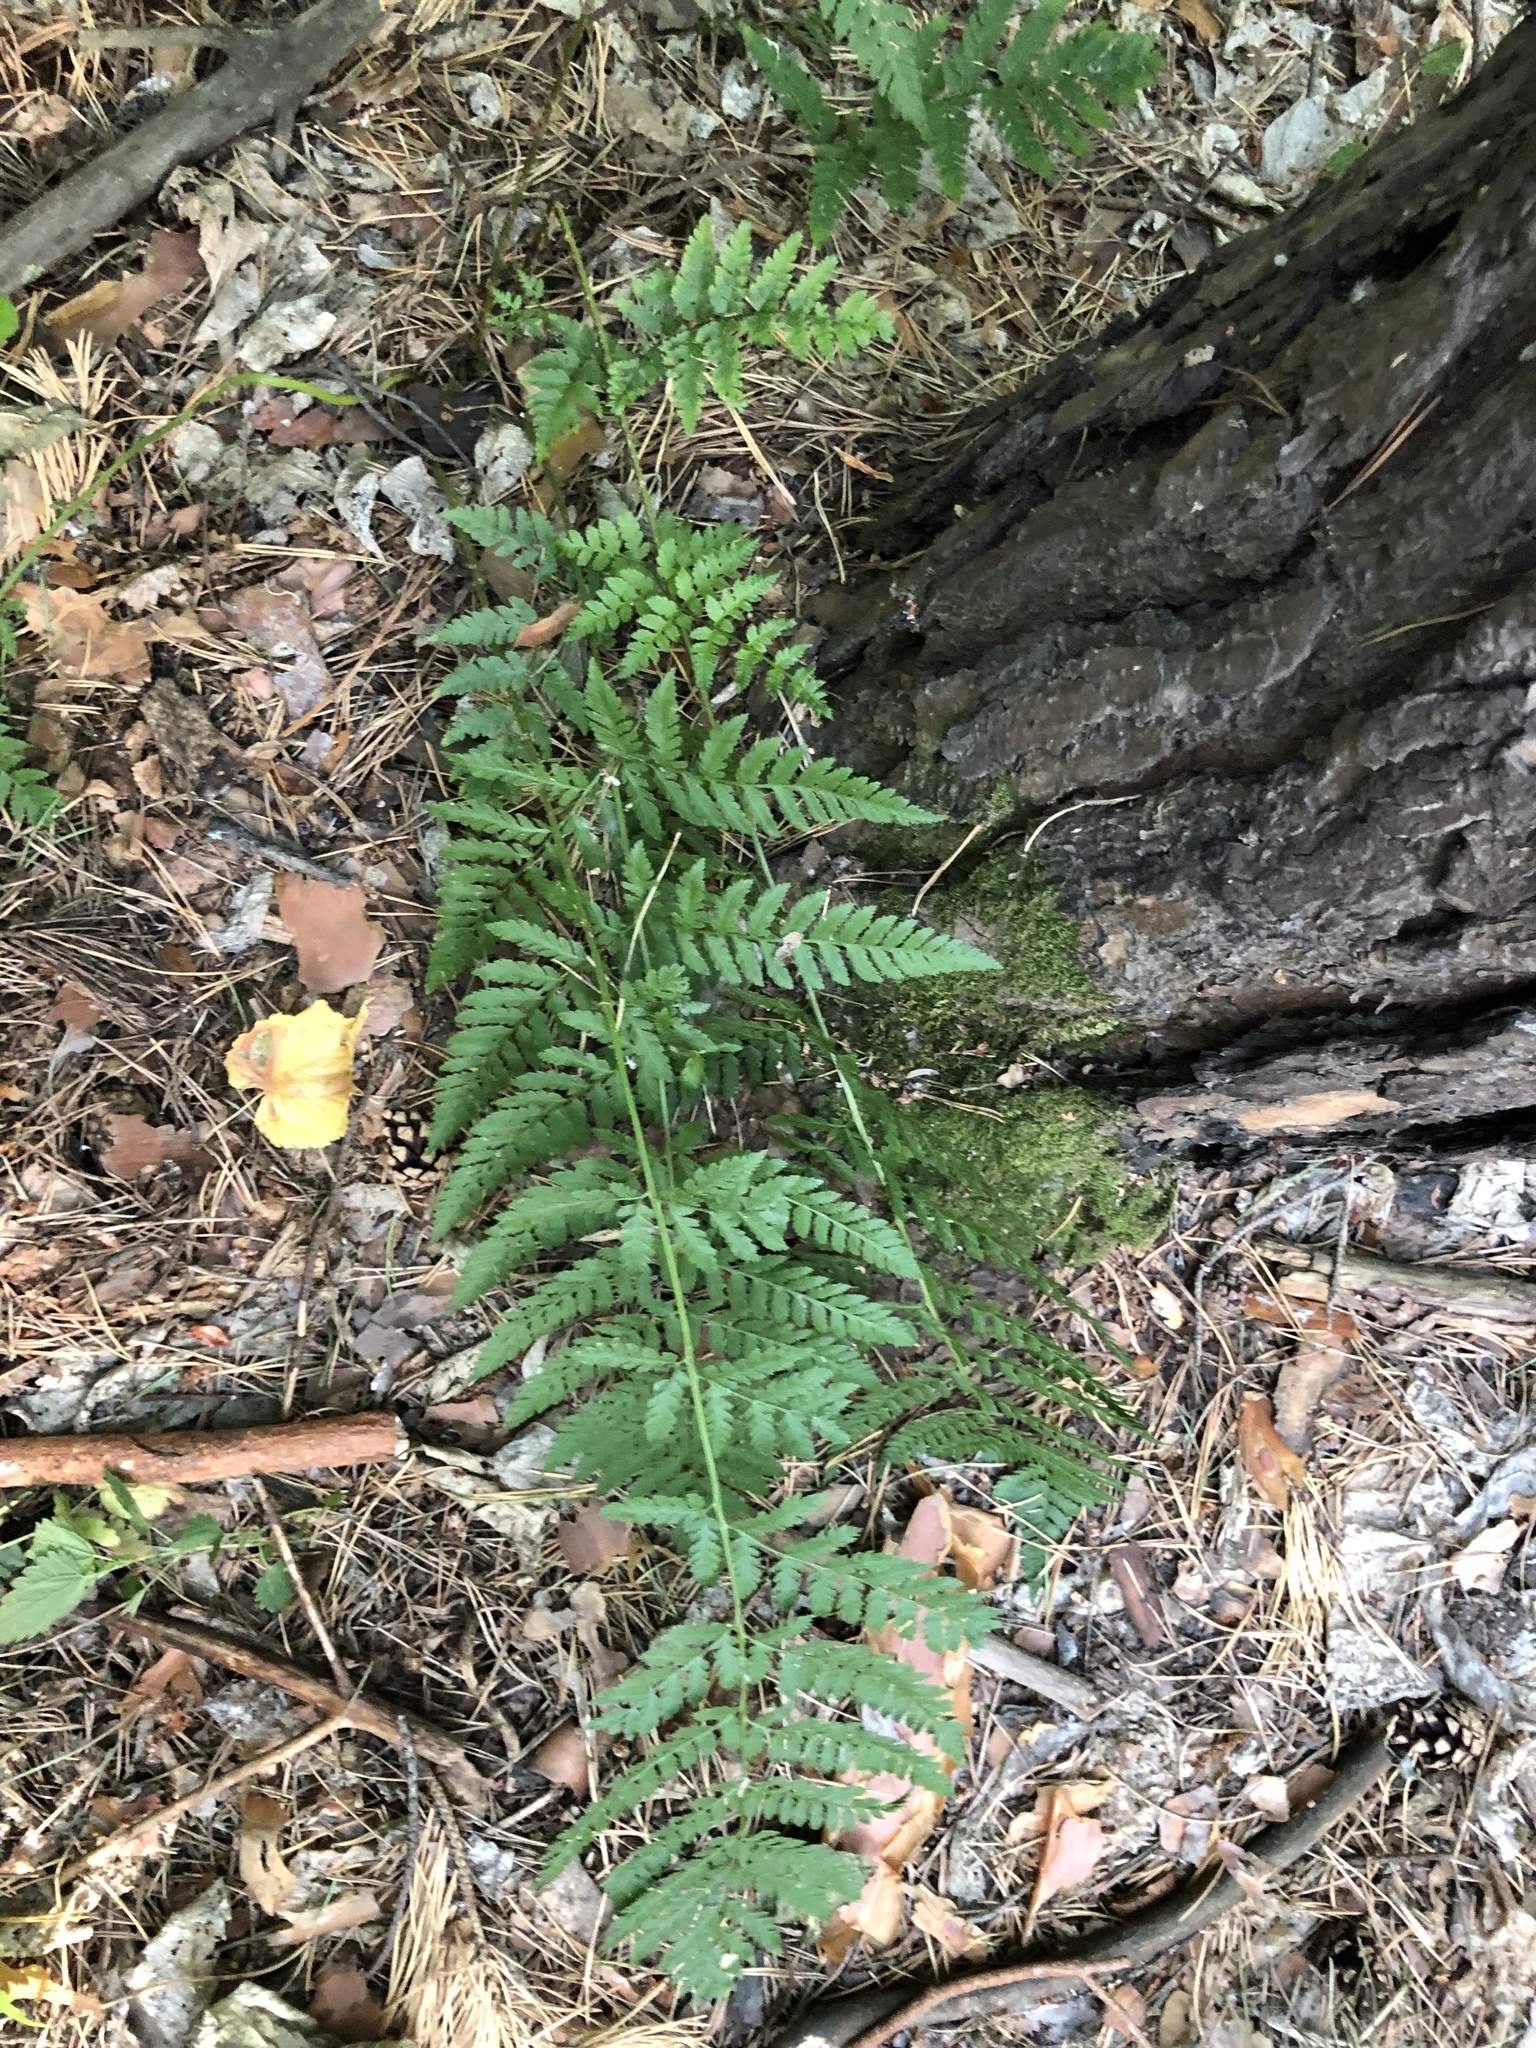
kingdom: Plantae
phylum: Tracheophyta
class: Polypodiopsida
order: Polypodiales
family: Dryopteridaceae
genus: Dryopteris
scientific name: Dryopteris carthusiana
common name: Narrow buckler-fern
